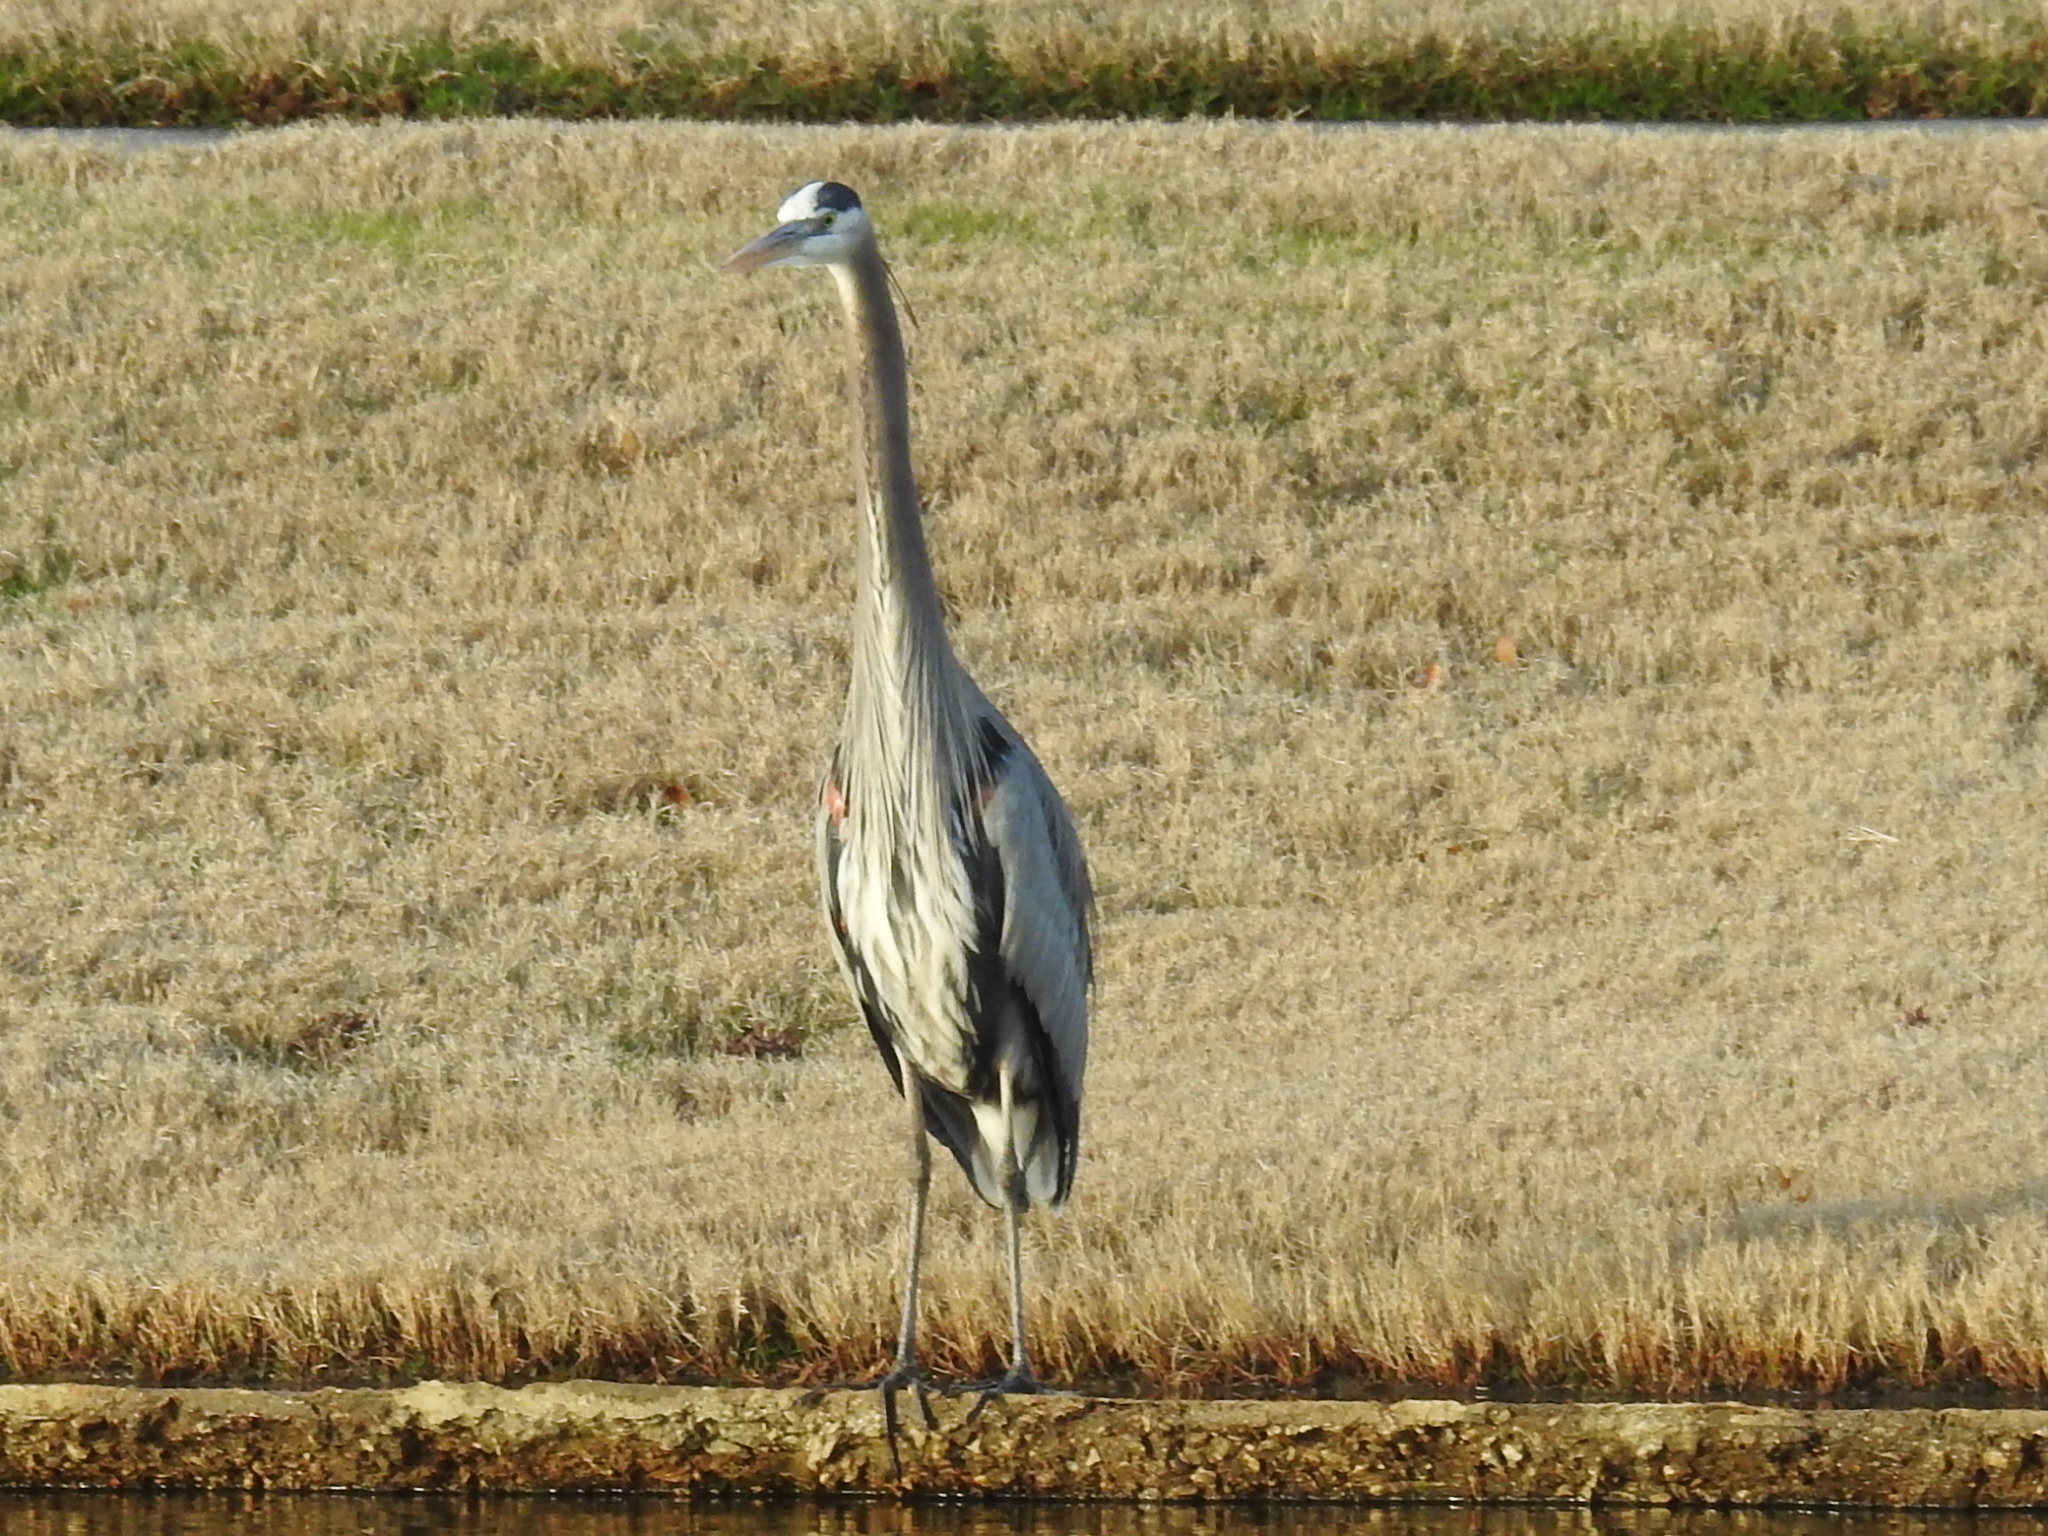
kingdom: Animalia
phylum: Chordata
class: Aves
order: Pelecaniformes
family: Ardeidae
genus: Ardea
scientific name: Ardea herodias
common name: Great blue heron
